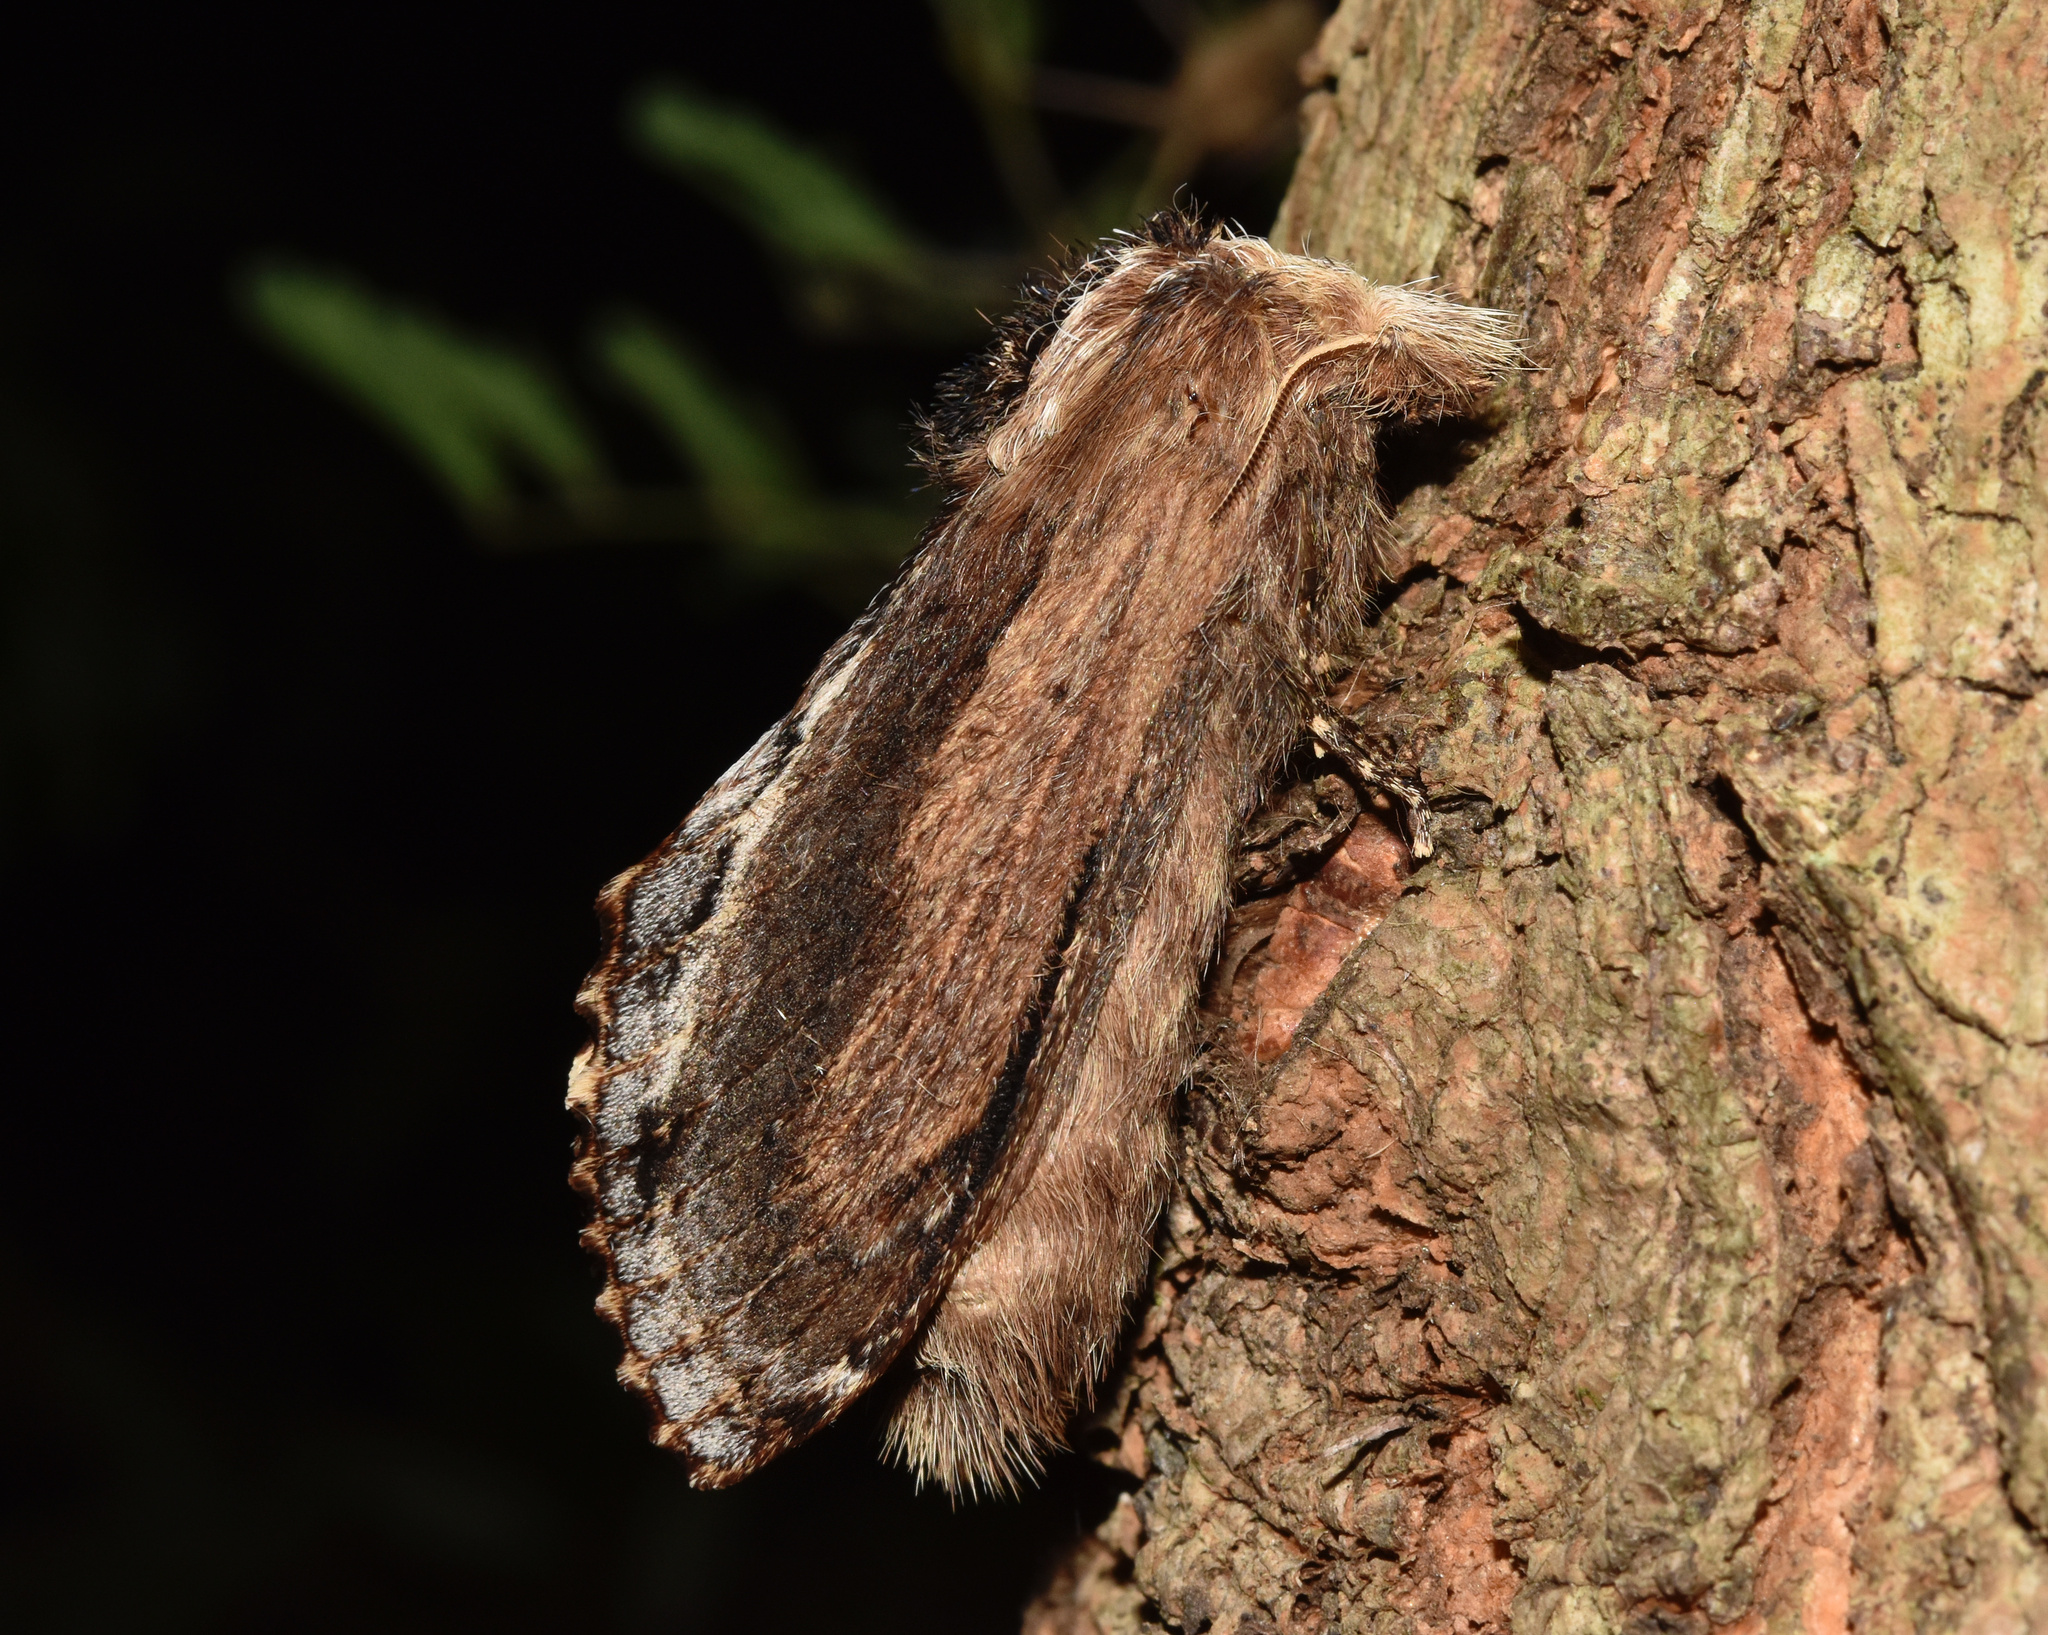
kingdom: Animalia
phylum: Arthropoda
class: Insecta
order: Lepidoptera
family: Lasiocampidae
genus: Pachypasa
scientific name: Pachypasa truncata
